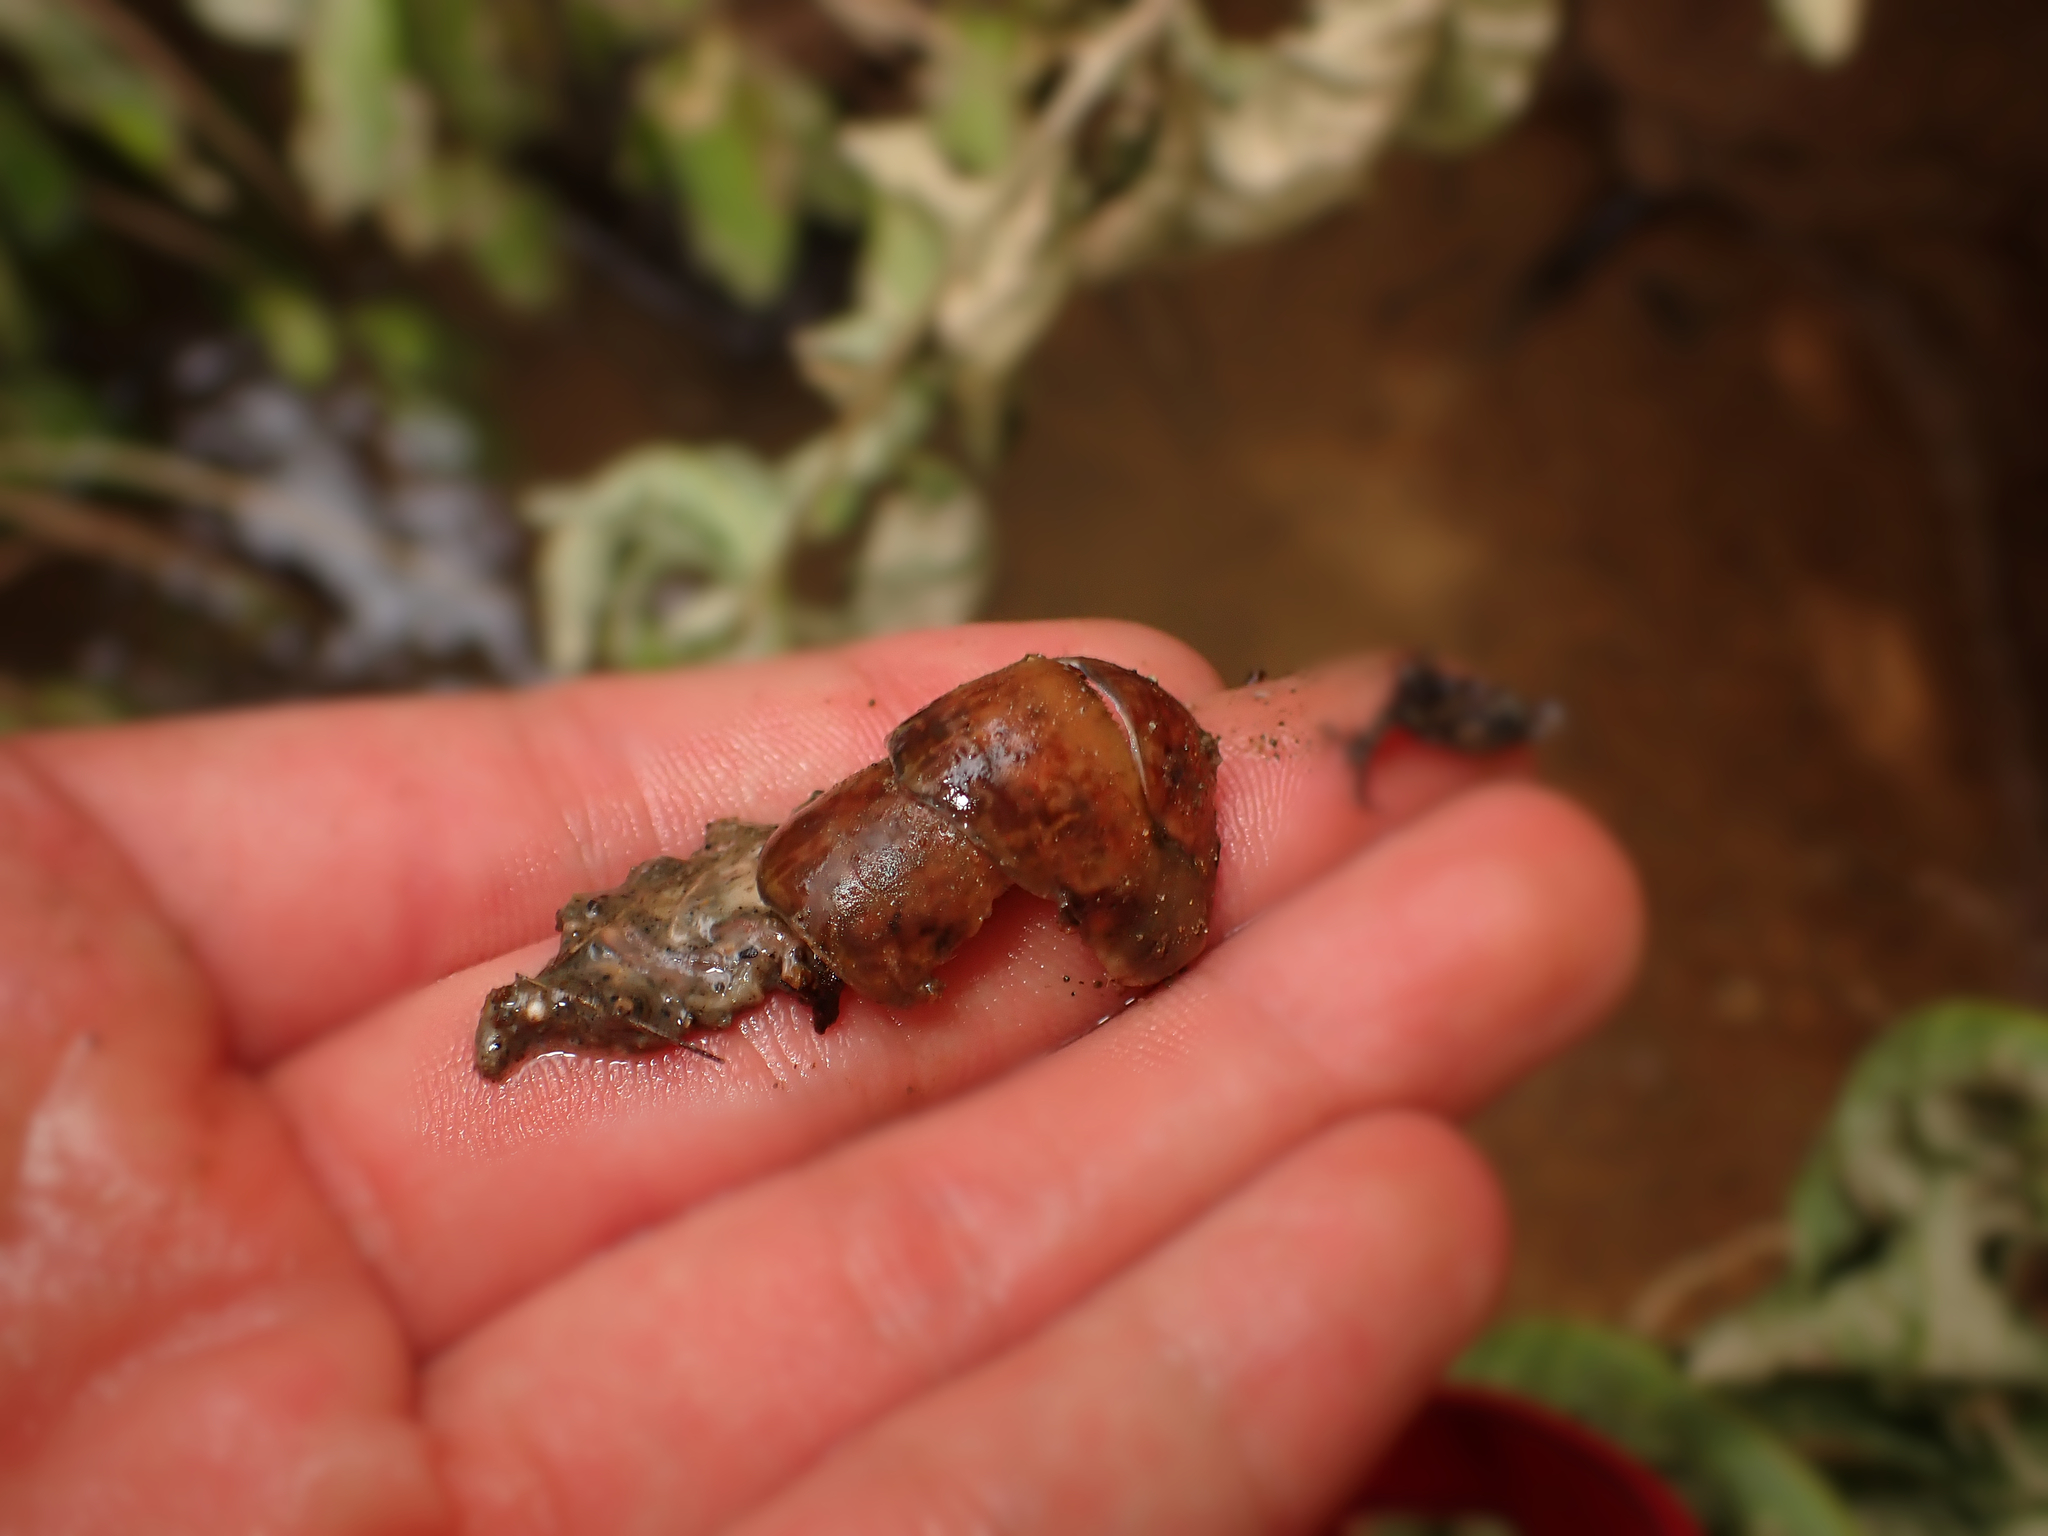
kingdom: Animalia
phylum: Arthropoda
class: Malacostraca
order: Decapoda
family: Parastacidae
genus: Paranephrops
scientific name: Paranephrops planifrons
